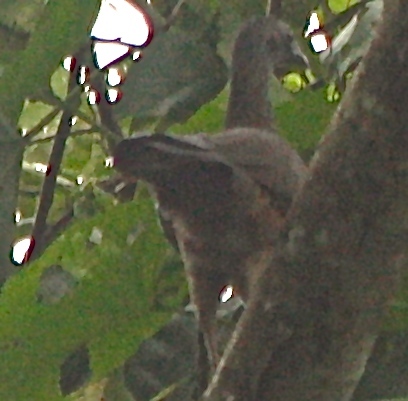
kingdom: Animalia
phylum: Chordata
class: Aves
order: Galliformes
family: Cracidae
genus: Ortalis
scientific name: Ortalis guttata
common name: Speckled chachalaca
